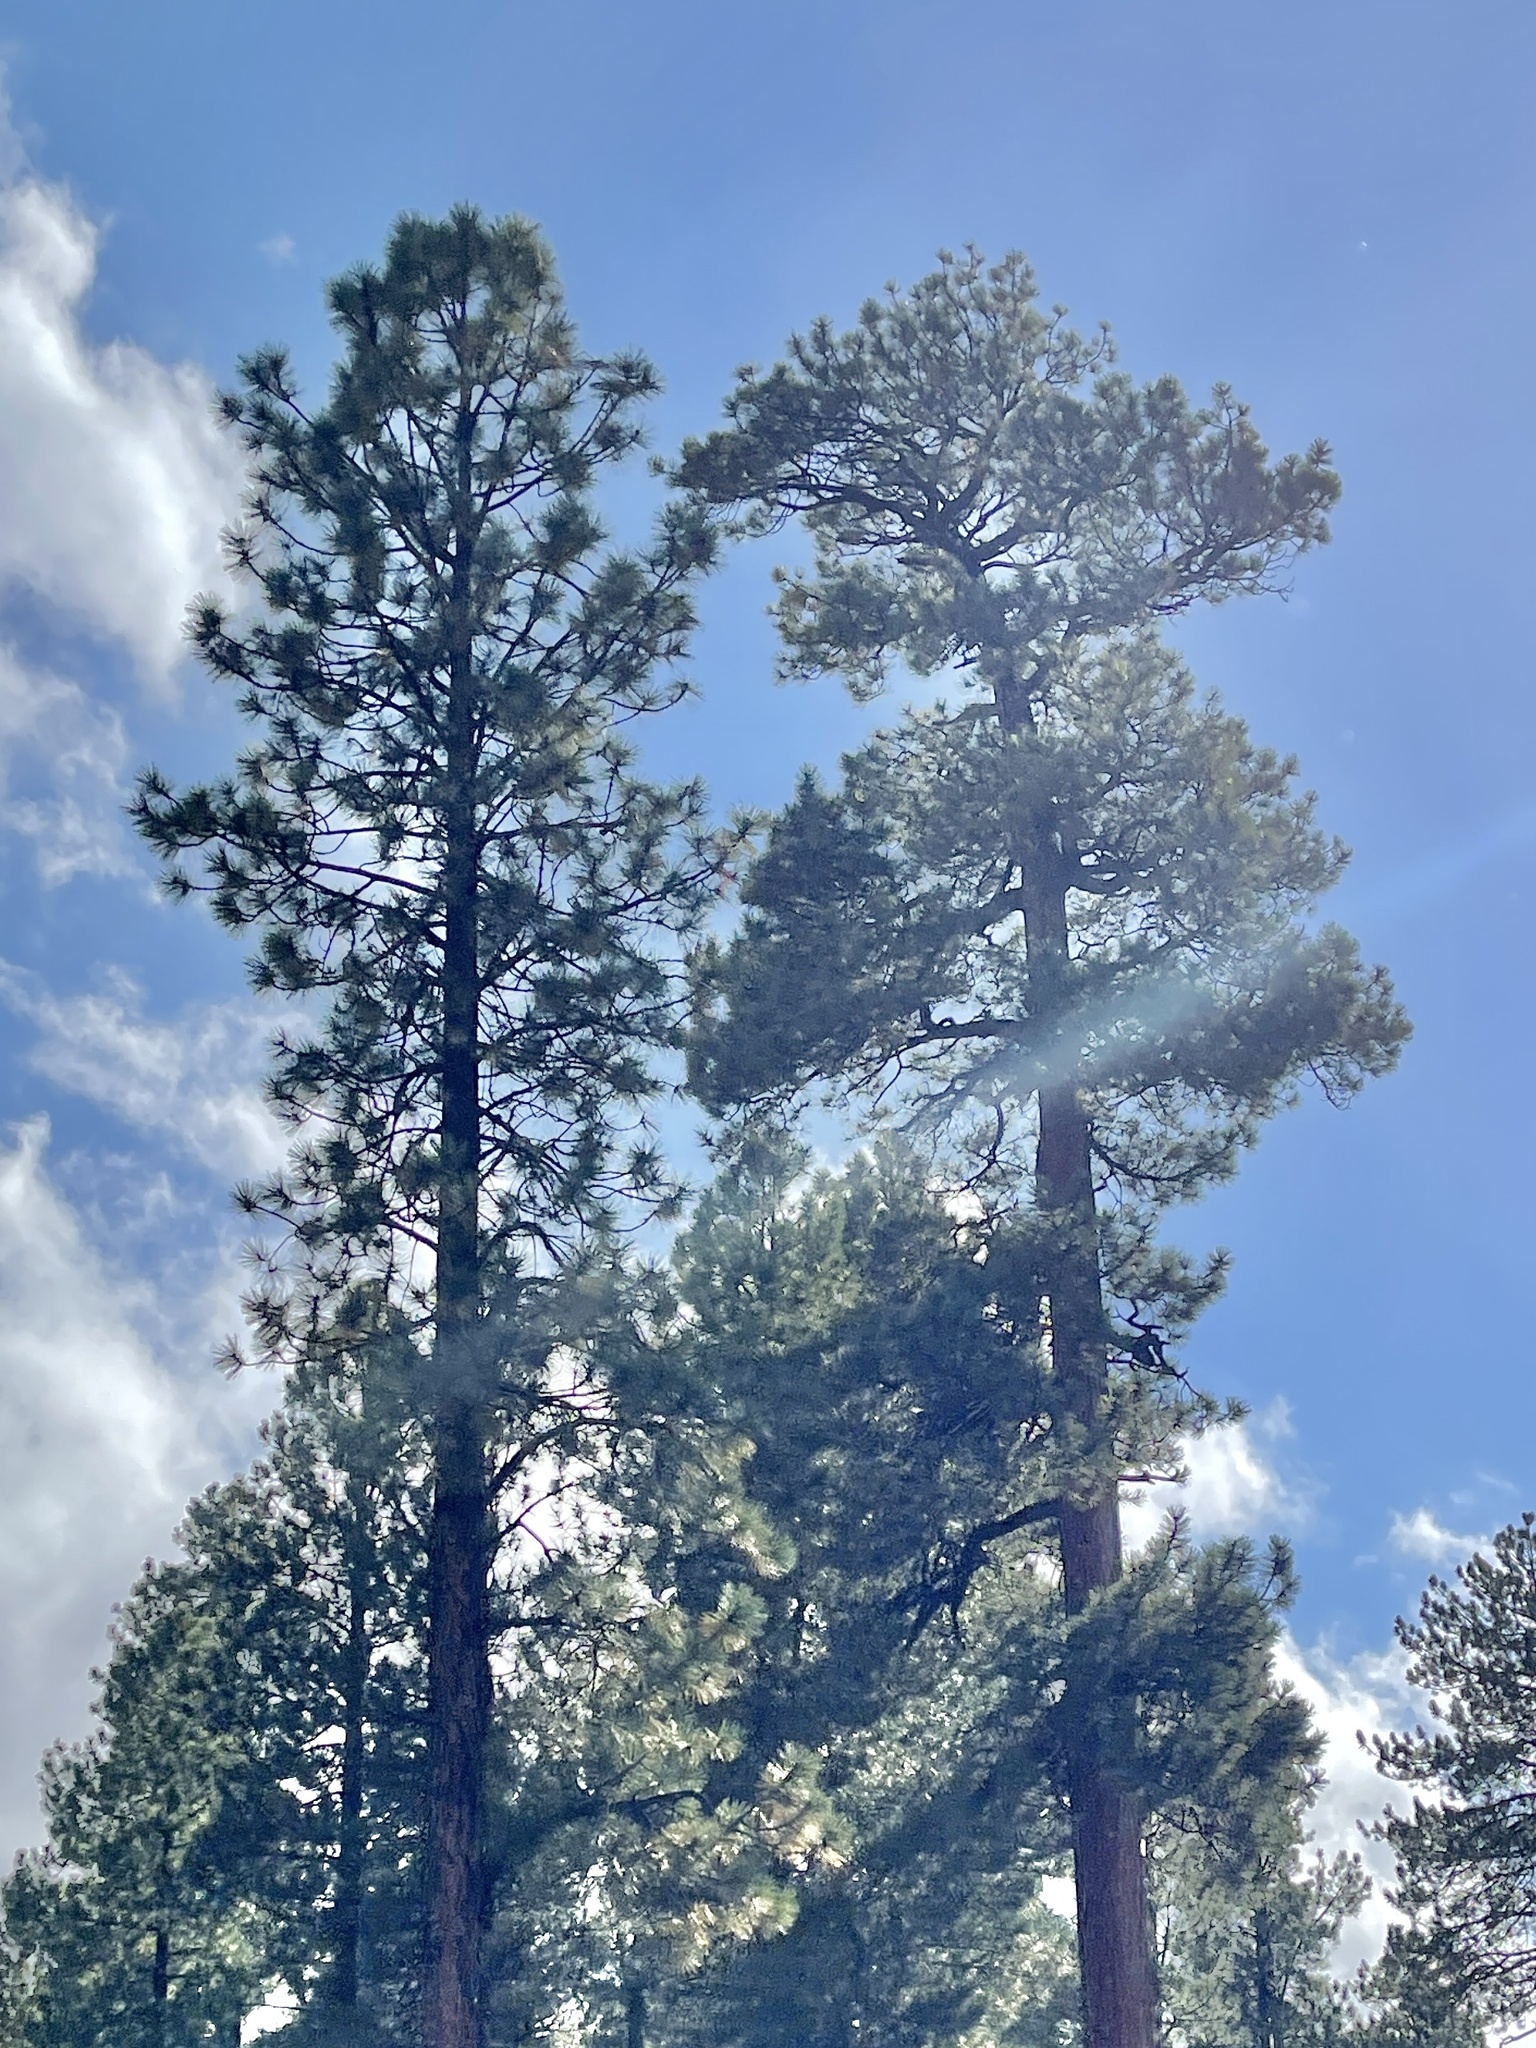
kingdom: Plantae
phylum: Tracheophyta
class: Pinopsida
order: Pinales
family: Pinaceae
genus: Pinus
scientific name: Pinus ponderosa
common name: Western yellow-pine
